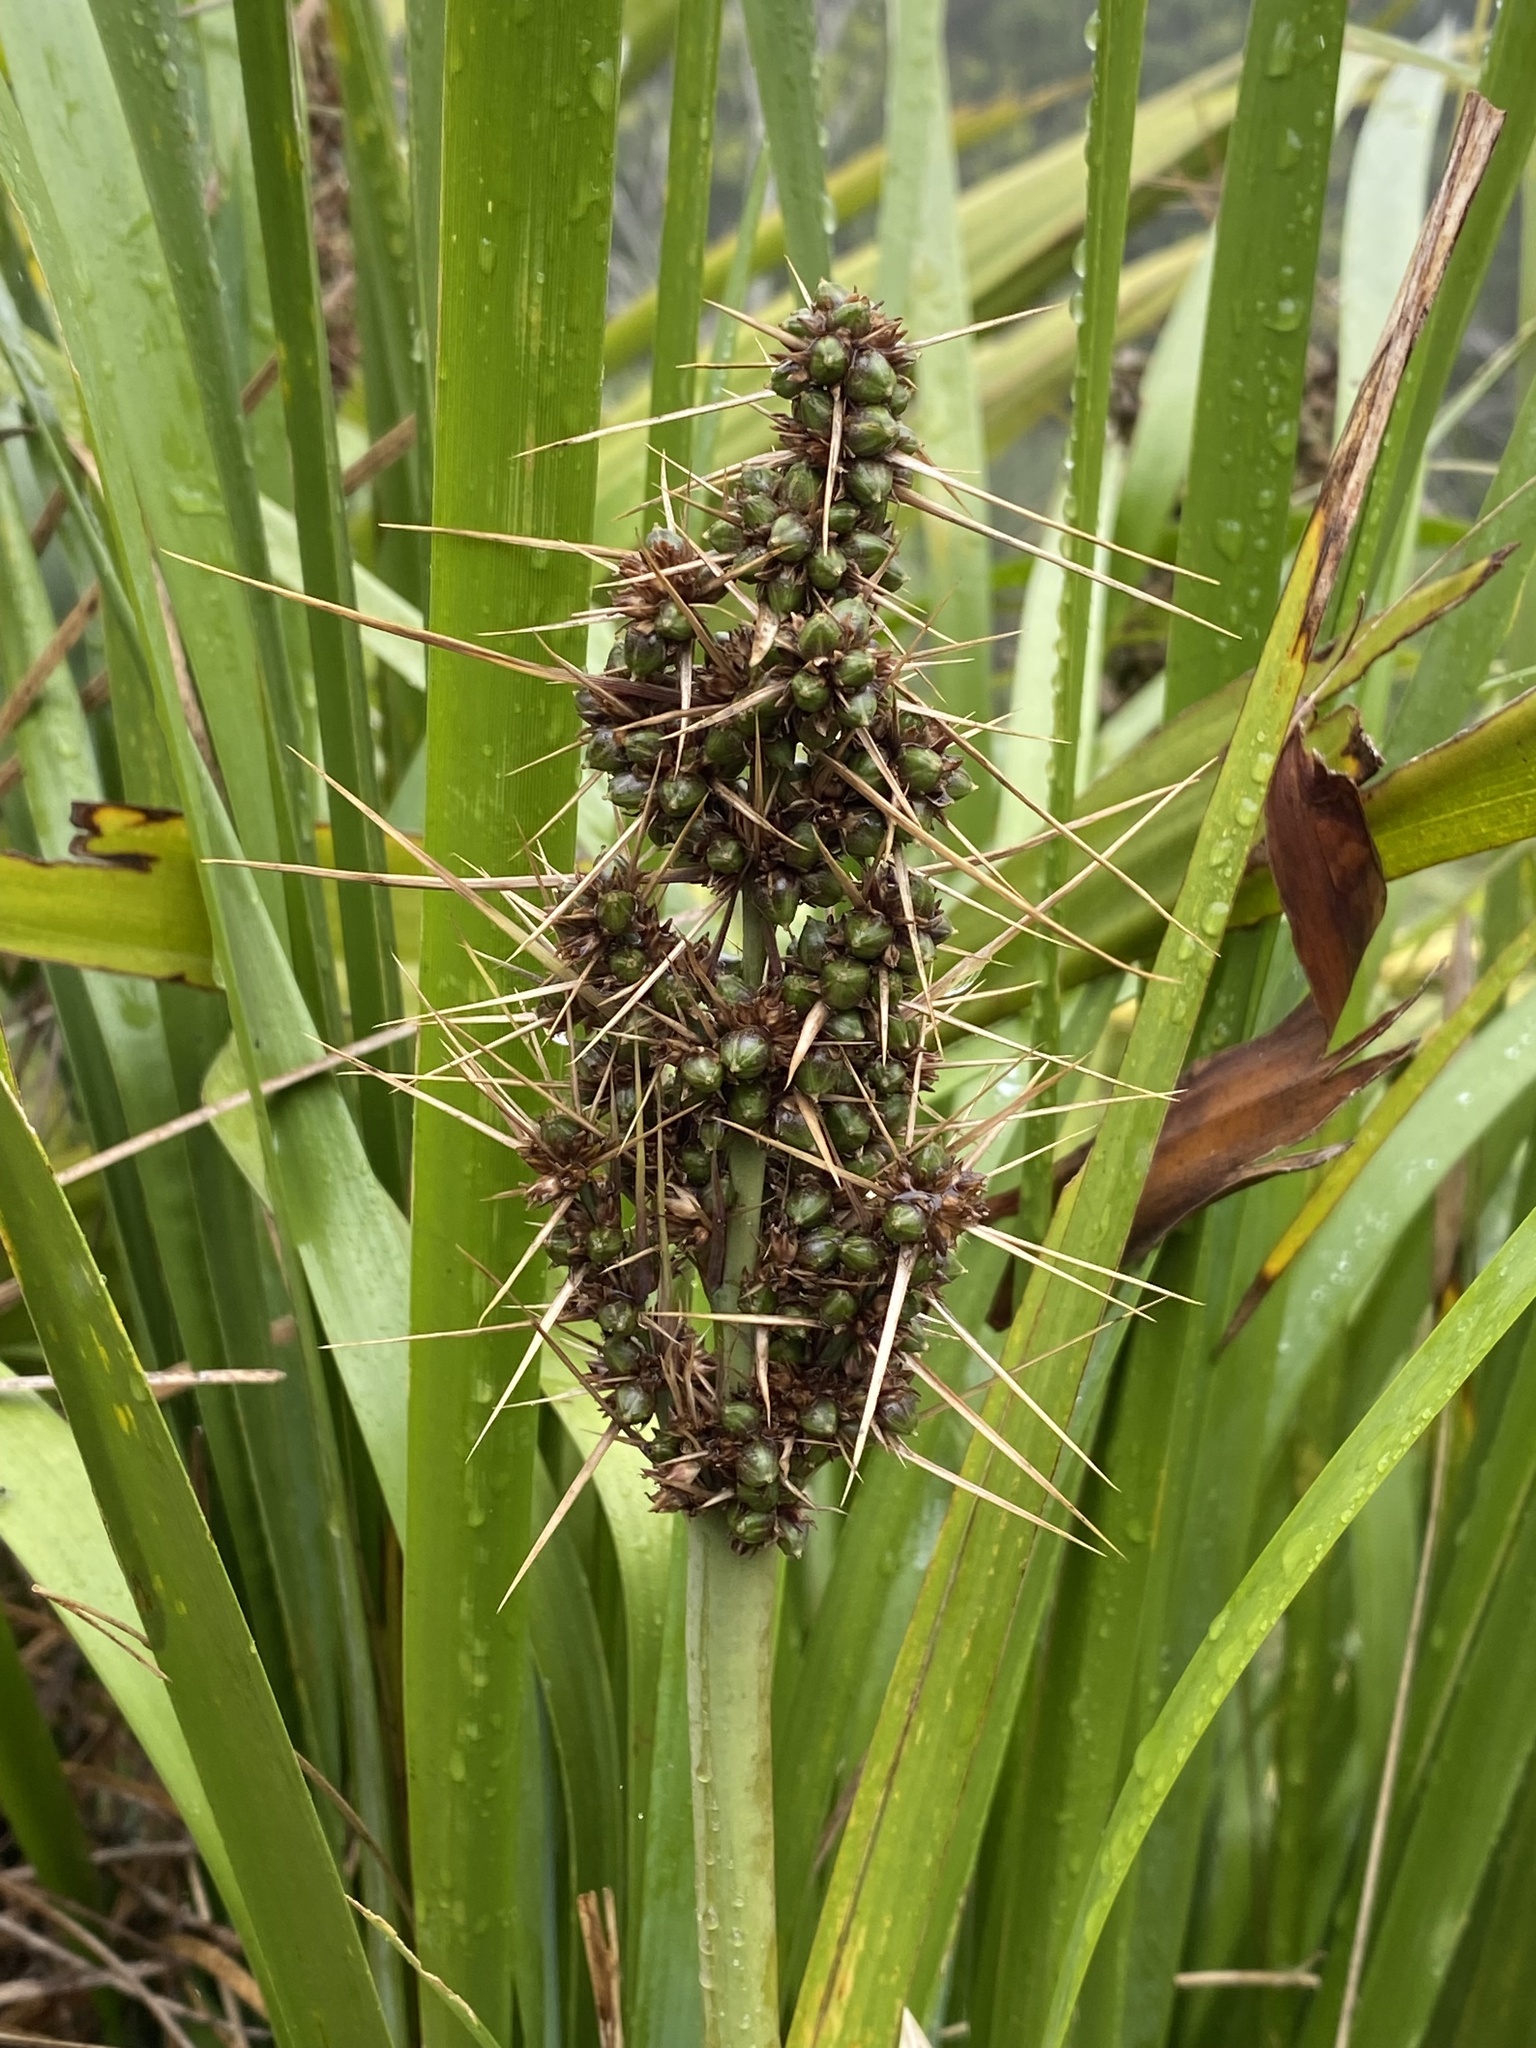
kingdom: Plantae
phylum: Tracheophyta
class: Liliopsida
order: Asparagales
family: Asparagaceae
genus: Lomandra
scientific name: Lomandra longifolia
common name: Longleaf mat-rush
